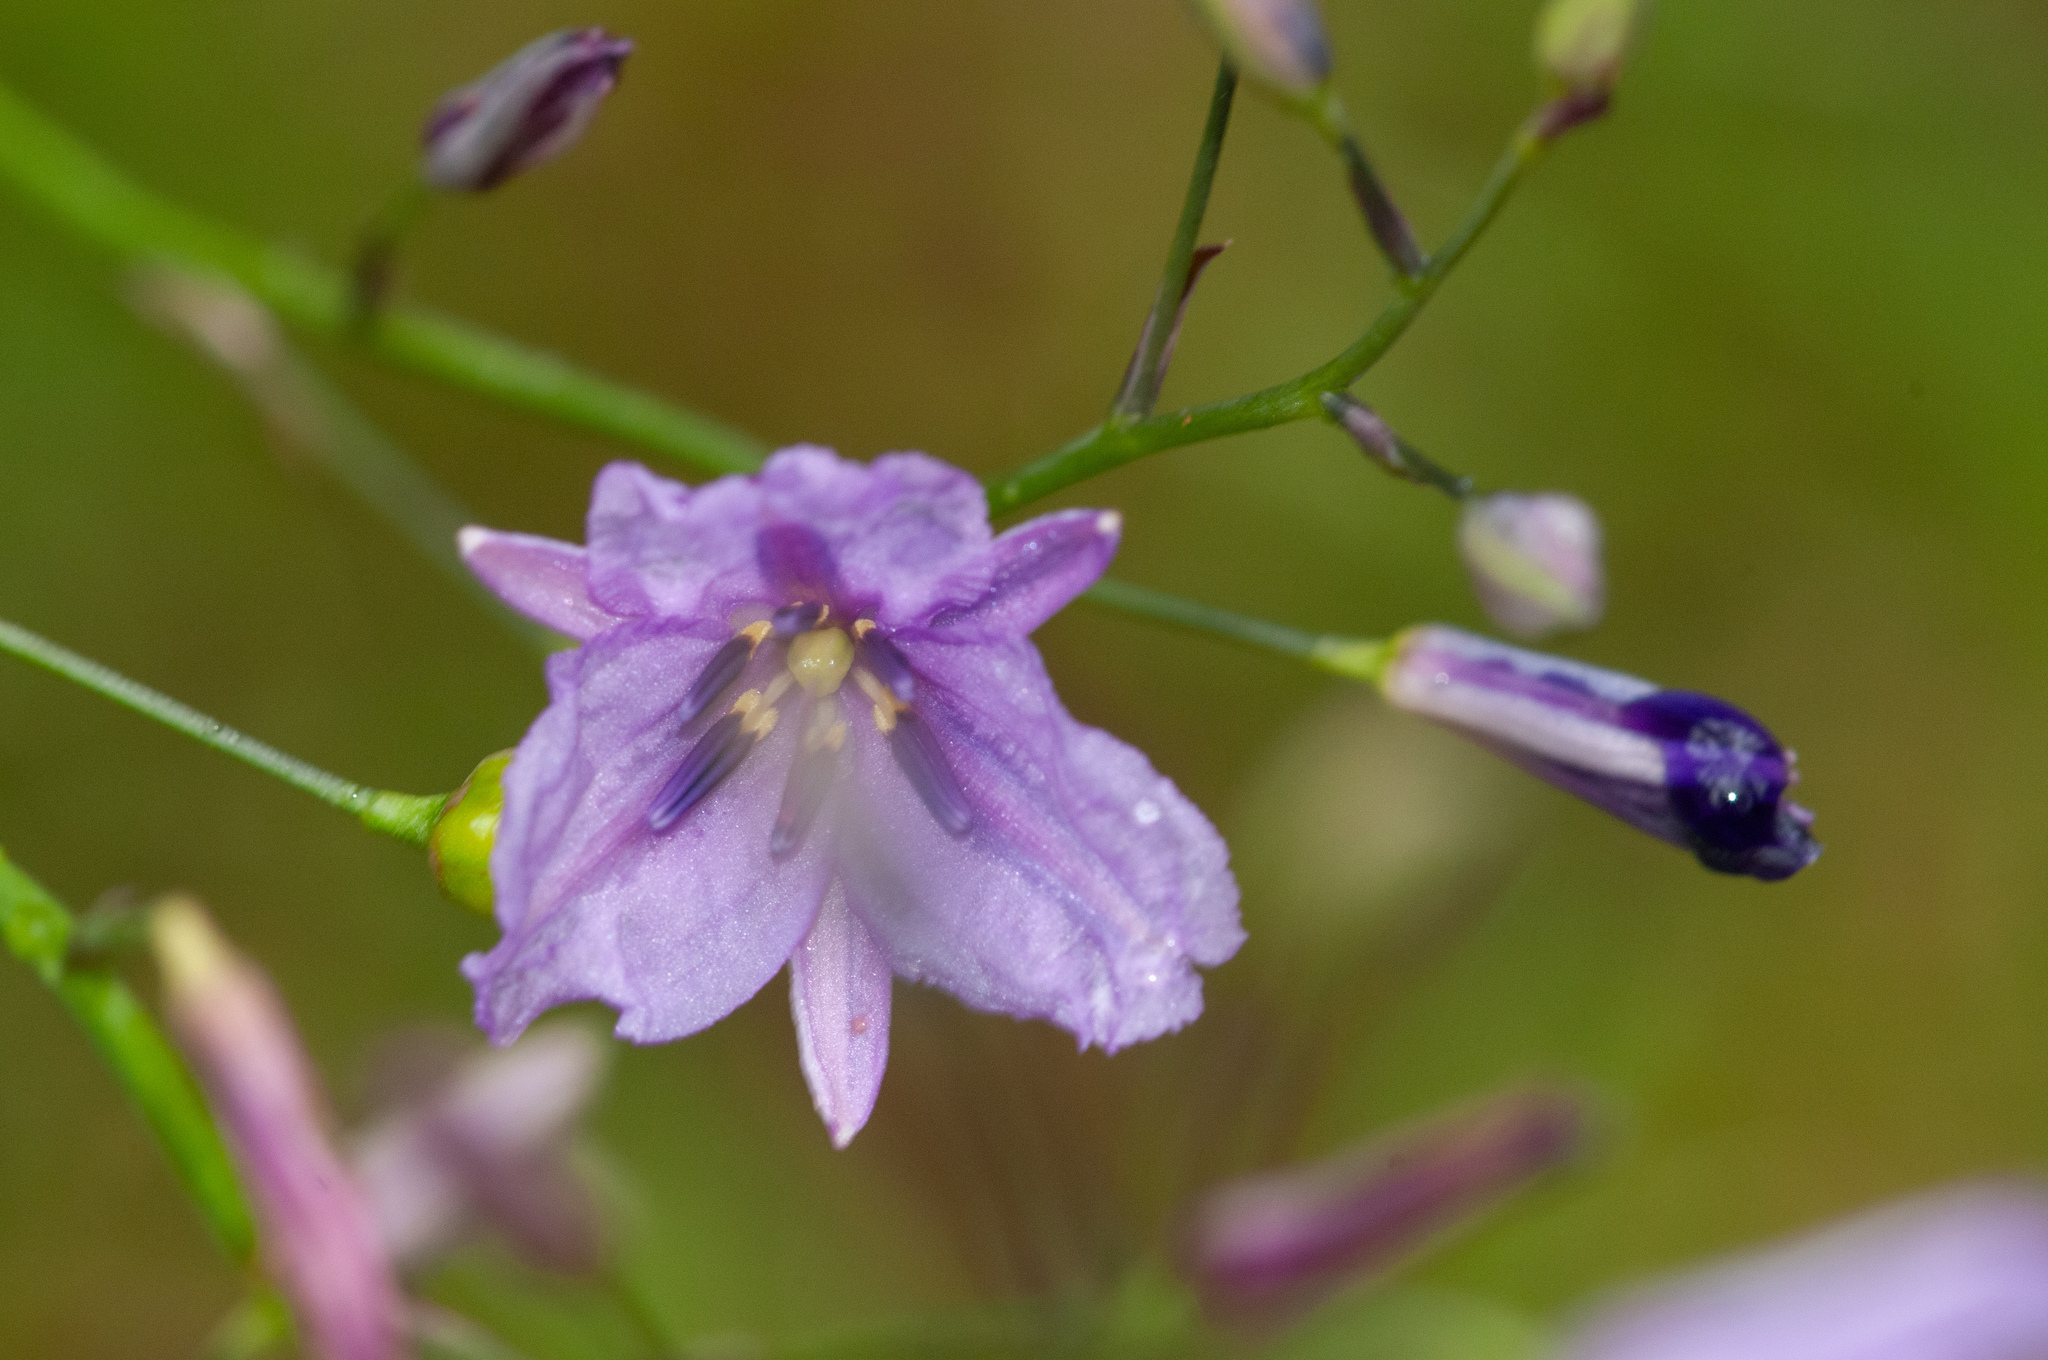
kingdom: Plantae
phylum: Tracheophyta
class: Liliopsida
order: Asparagales
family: Asparagaceae
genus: Arthropodium
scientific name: Arthropodium strictum
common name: Chocolate-lily
